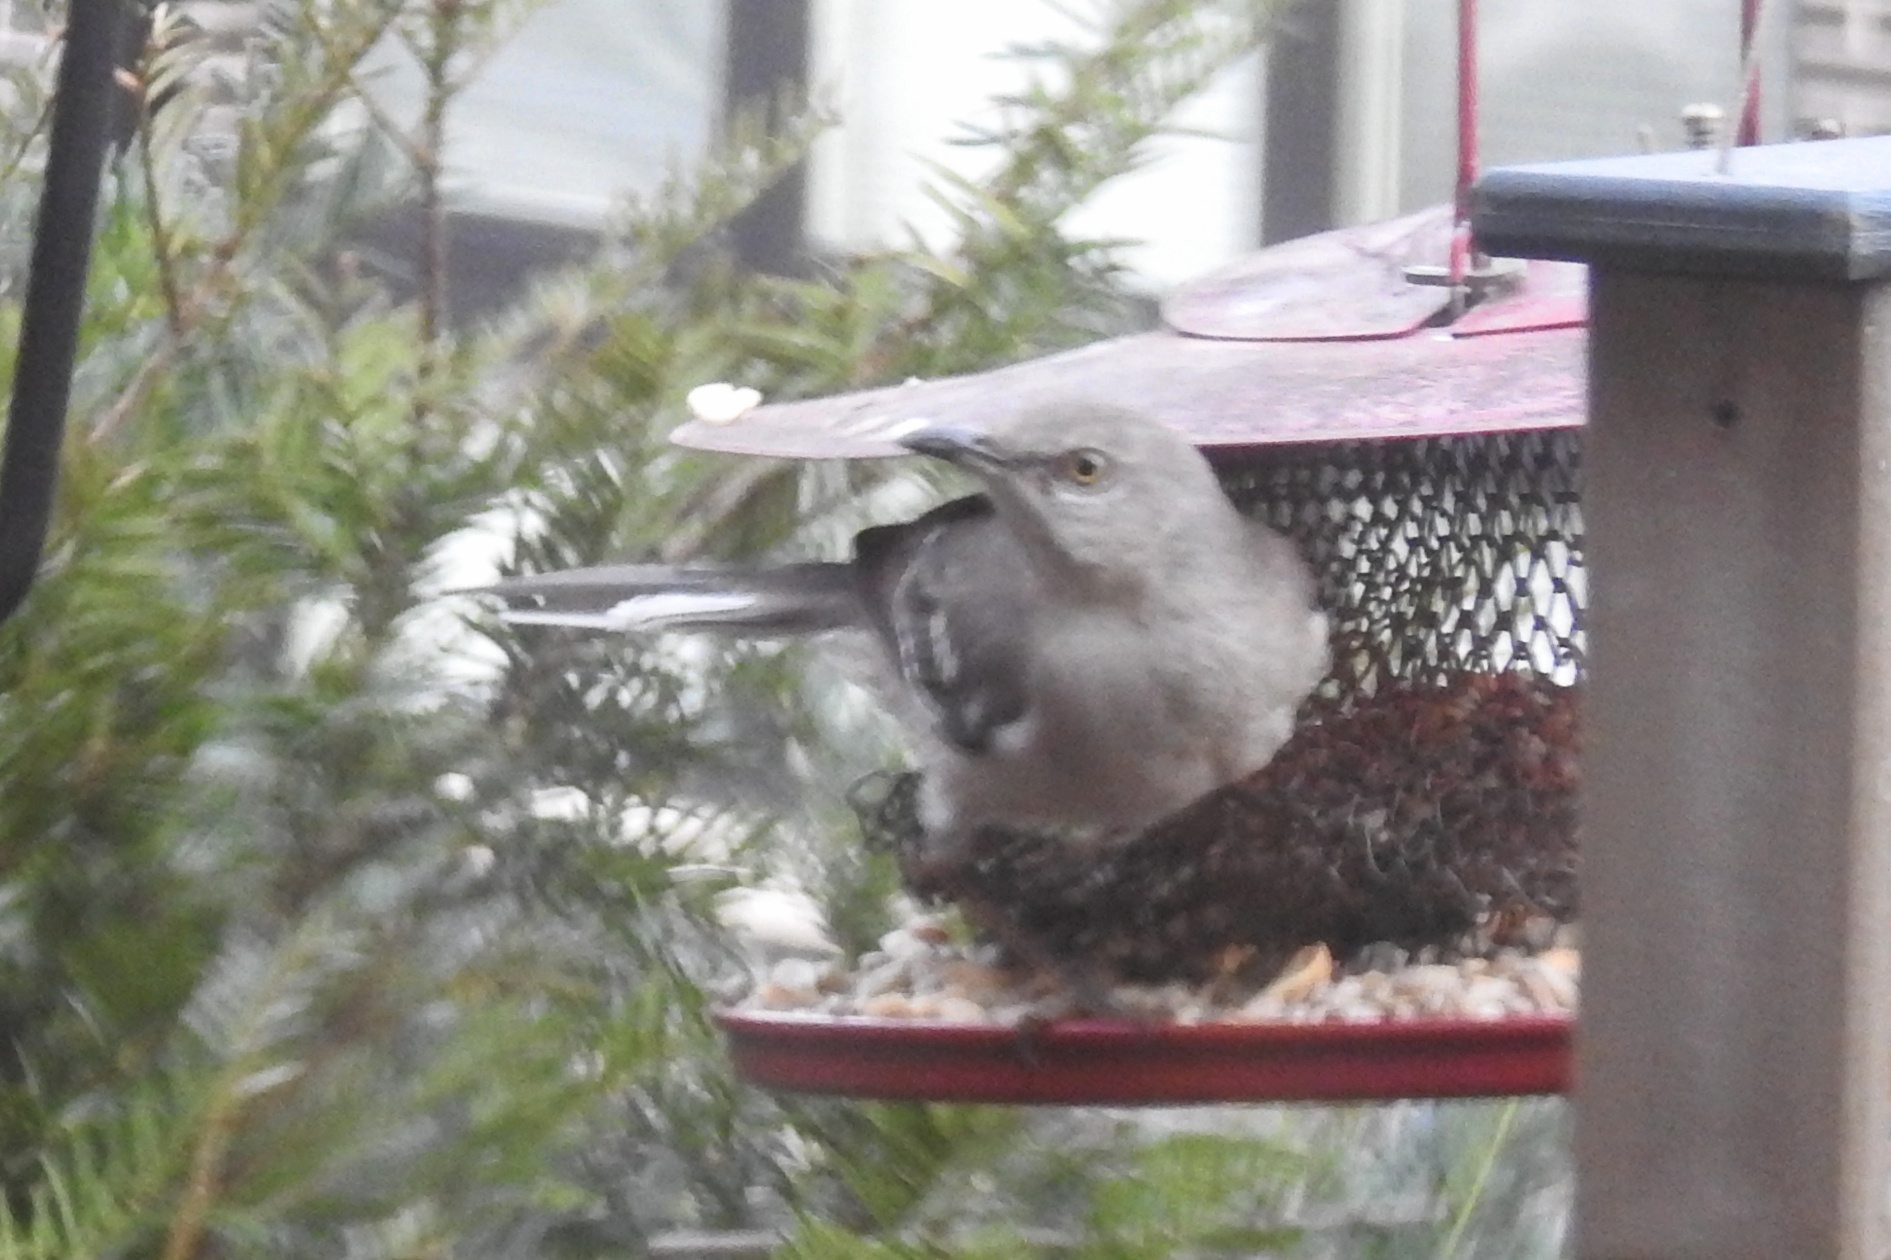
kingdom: Animalia
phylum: Chordata
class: Aves
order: Passeriformes
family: Mimidae
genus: Mimus
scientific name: Mimus polyglottos
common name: Northern mockingbird
